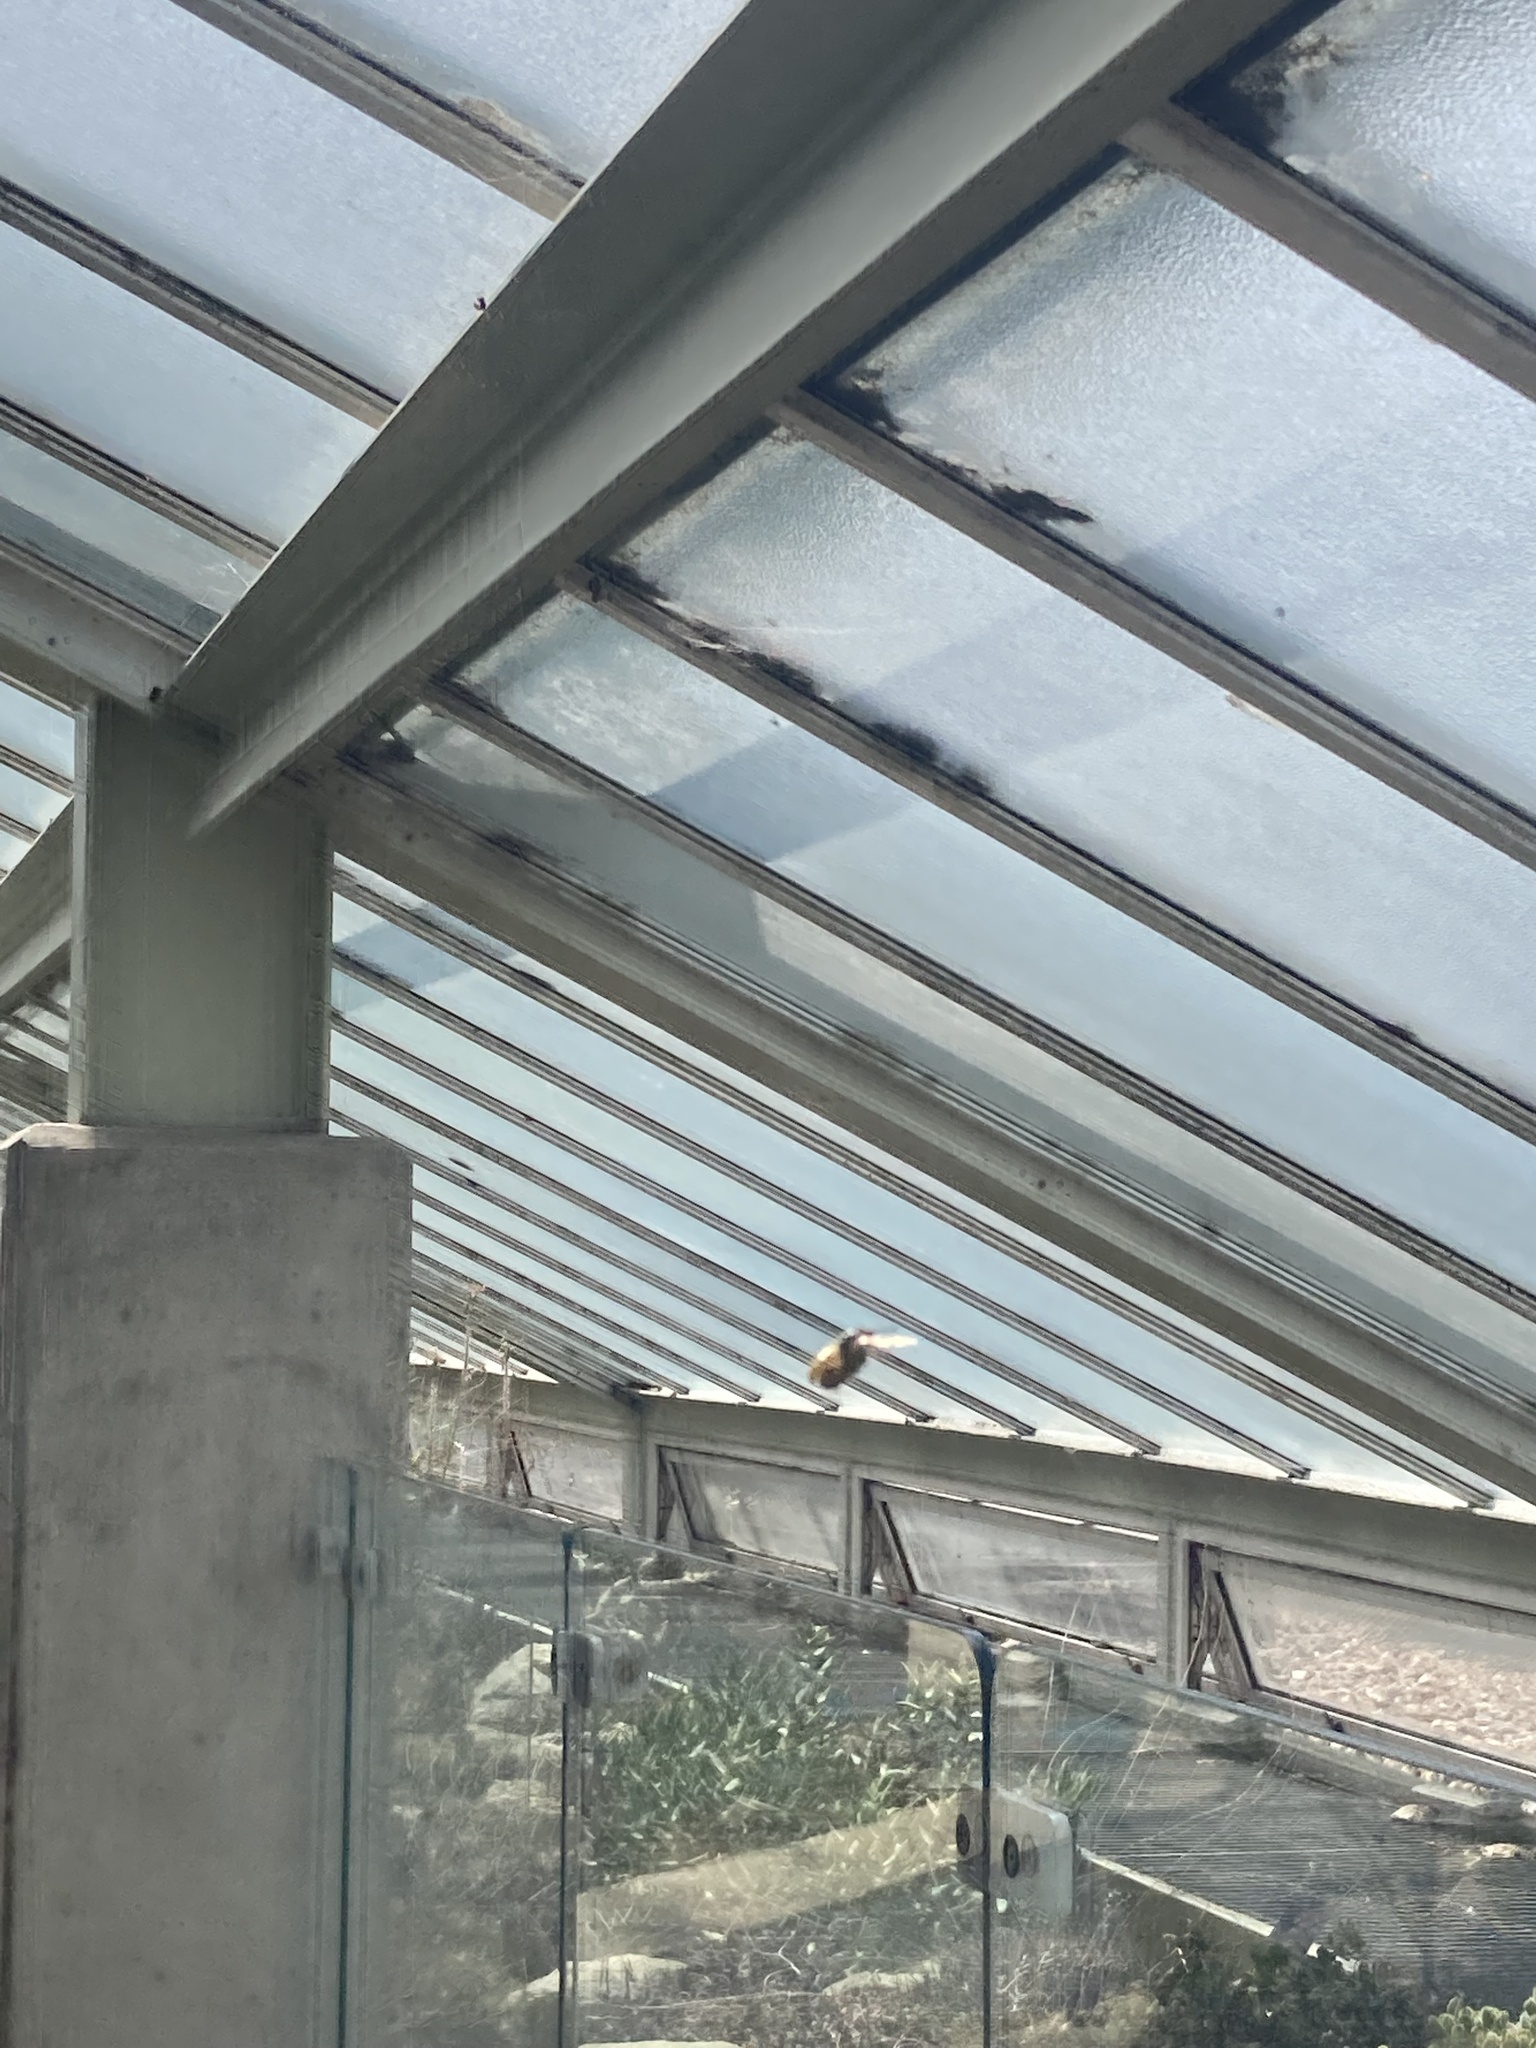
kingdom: Animalia
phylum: Arthropoda
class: Insecta
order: Hymenoptera
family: Crabronidae
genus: Philanthus
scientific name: Philanthus triangulum
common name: Bee wolf
